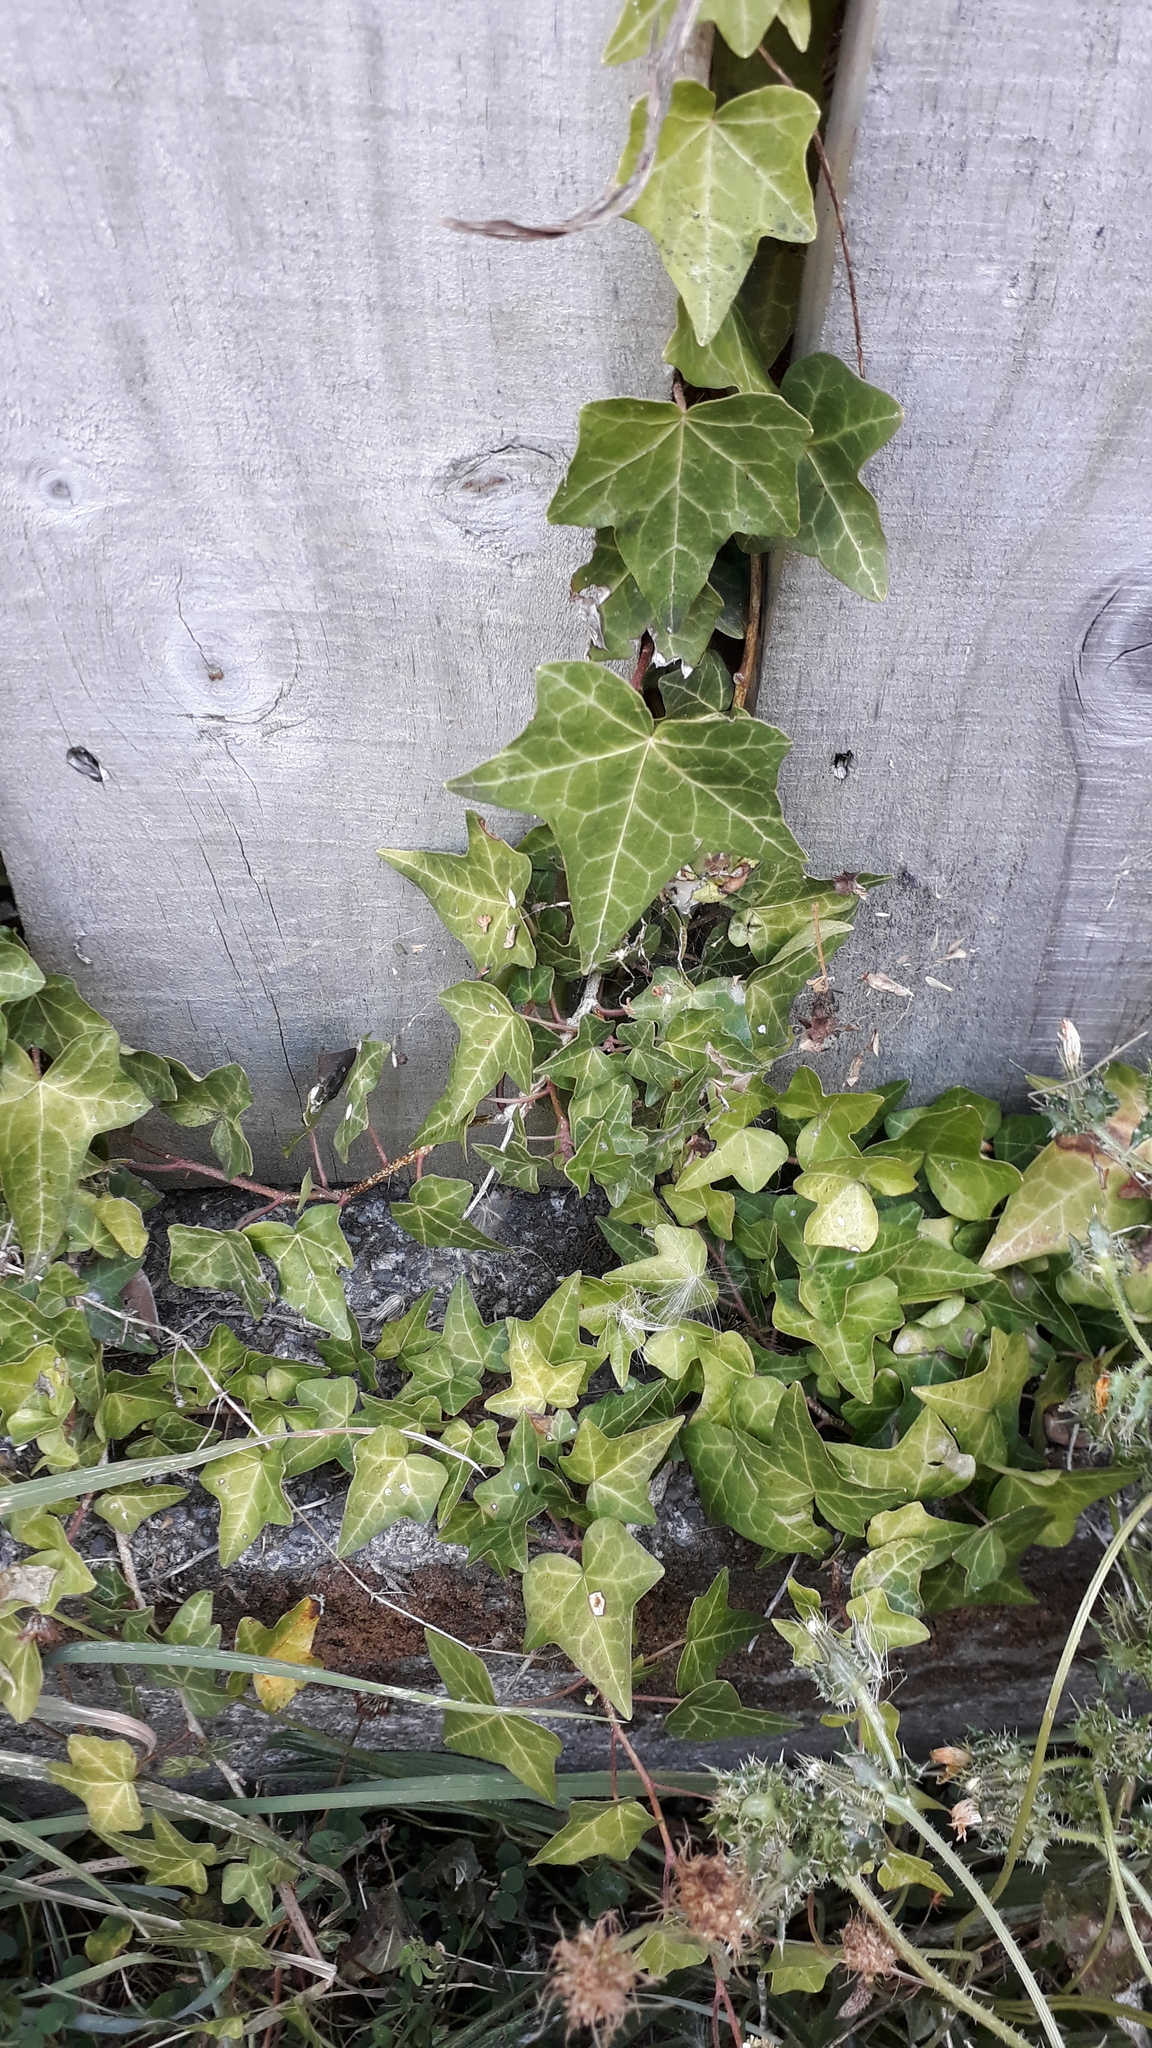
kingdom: Plantae
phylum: Tracheophyta
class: Magnoliopsida
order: Apiales
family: Araliaceae
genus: Hedera
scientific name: Hedera helix
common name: Ivy
